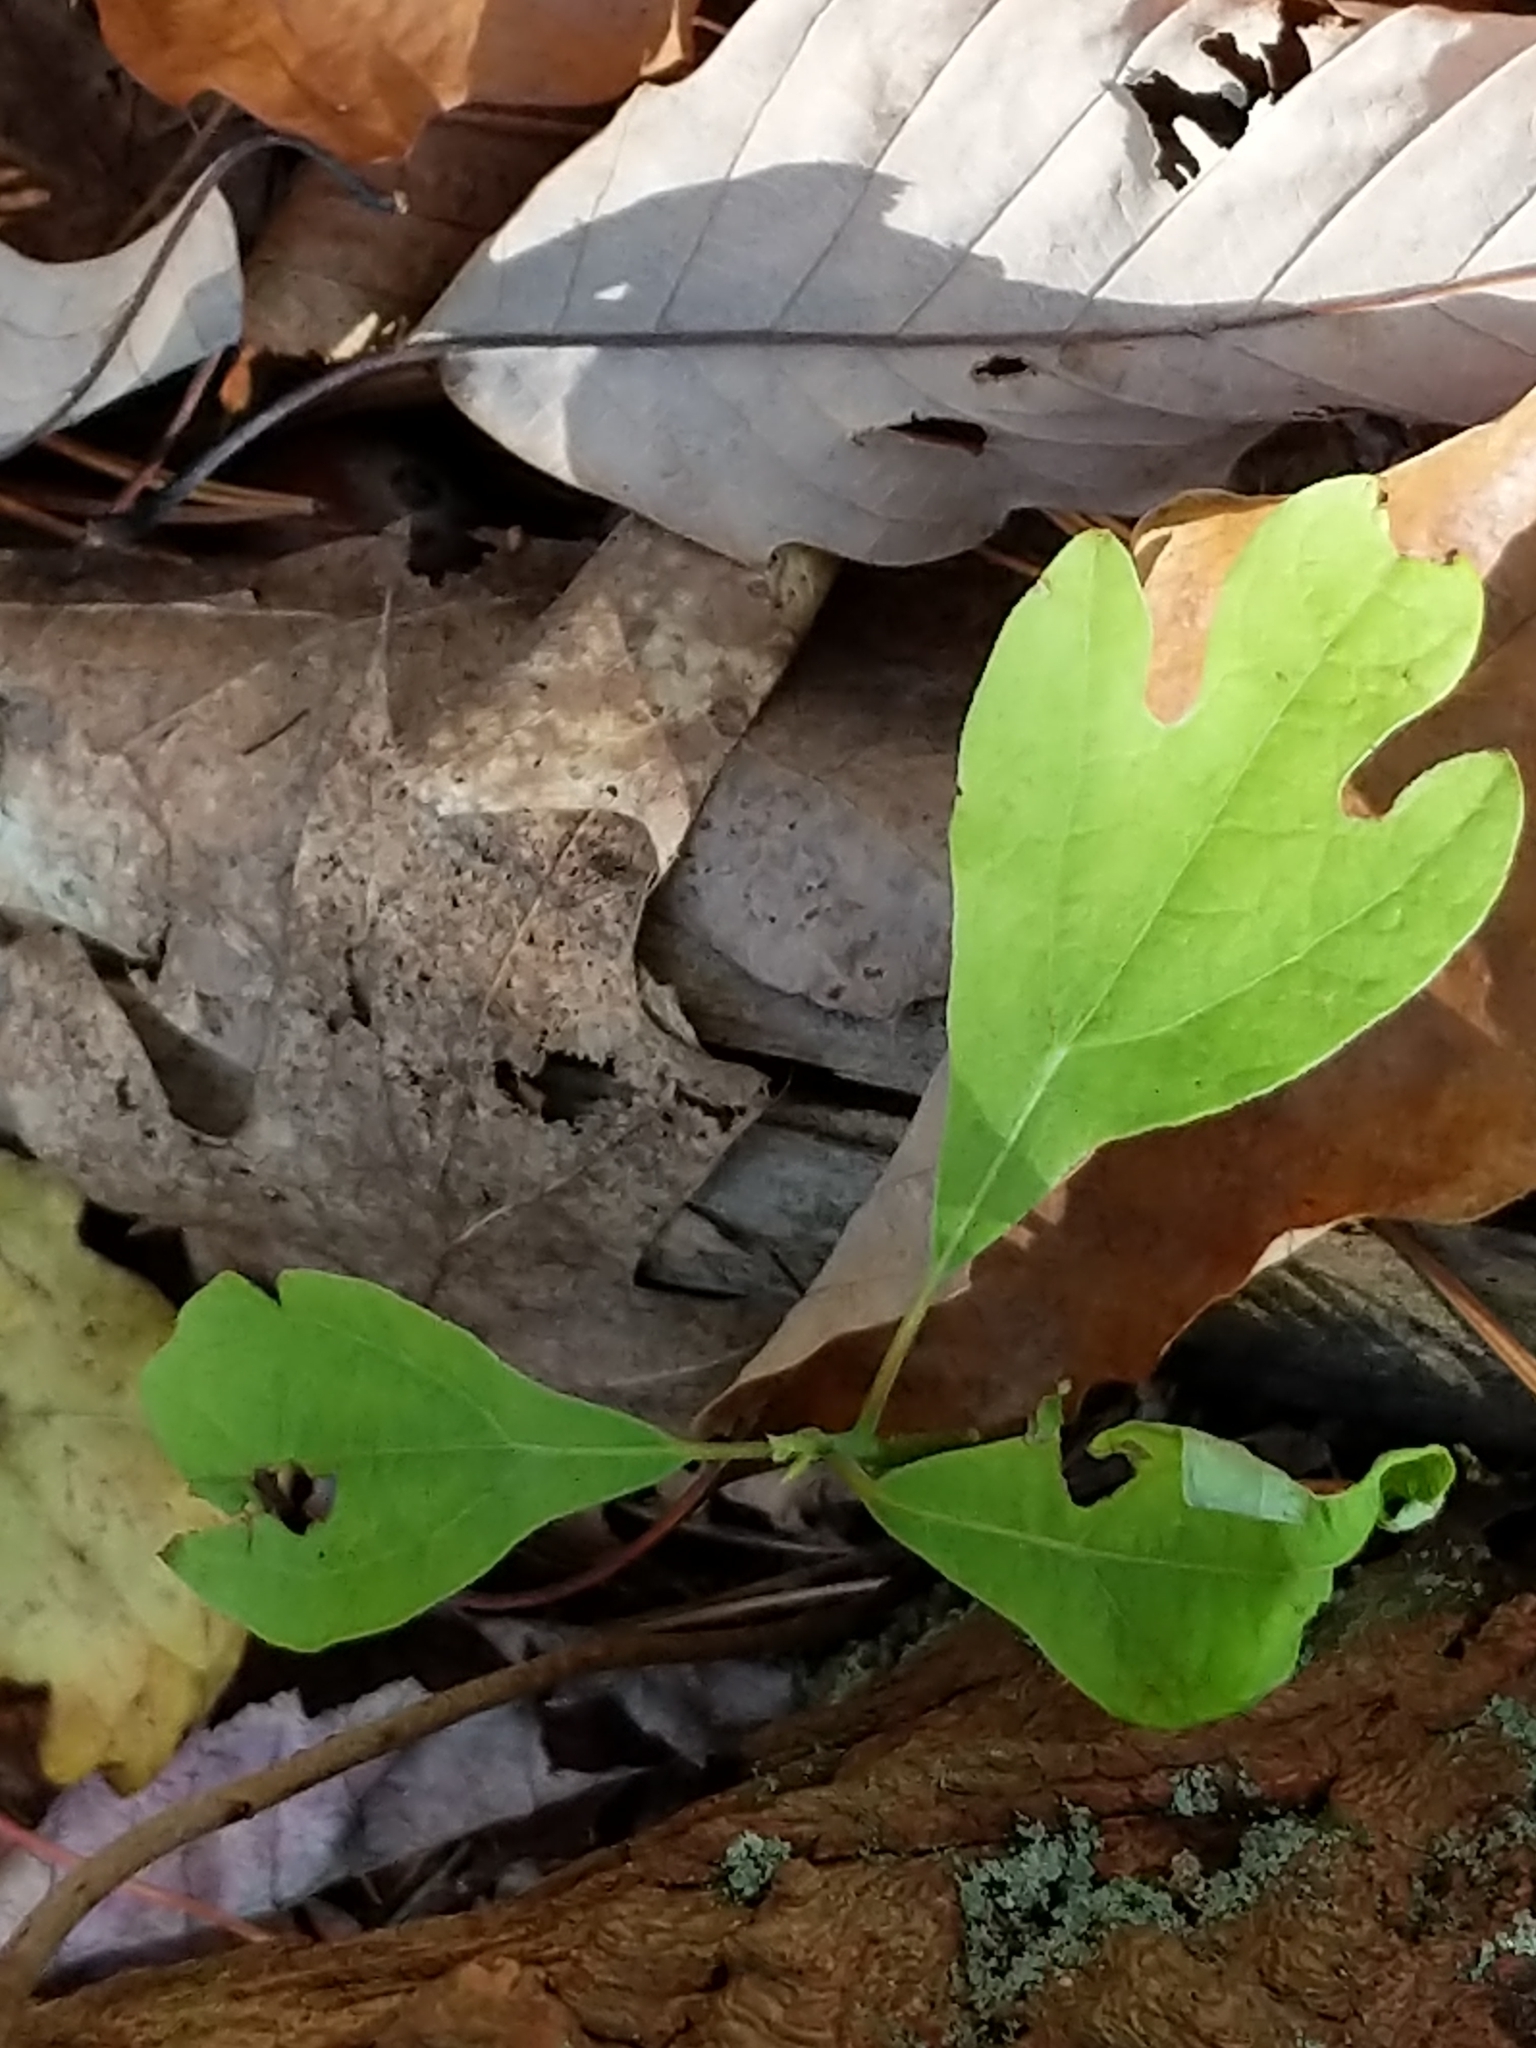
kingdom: Plantae
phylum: Tracheophyta
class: Magnoliopsida
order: Laurales
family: Lauraceae
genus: Sassafras
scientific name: Sassafras albidum
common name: Sassafras
